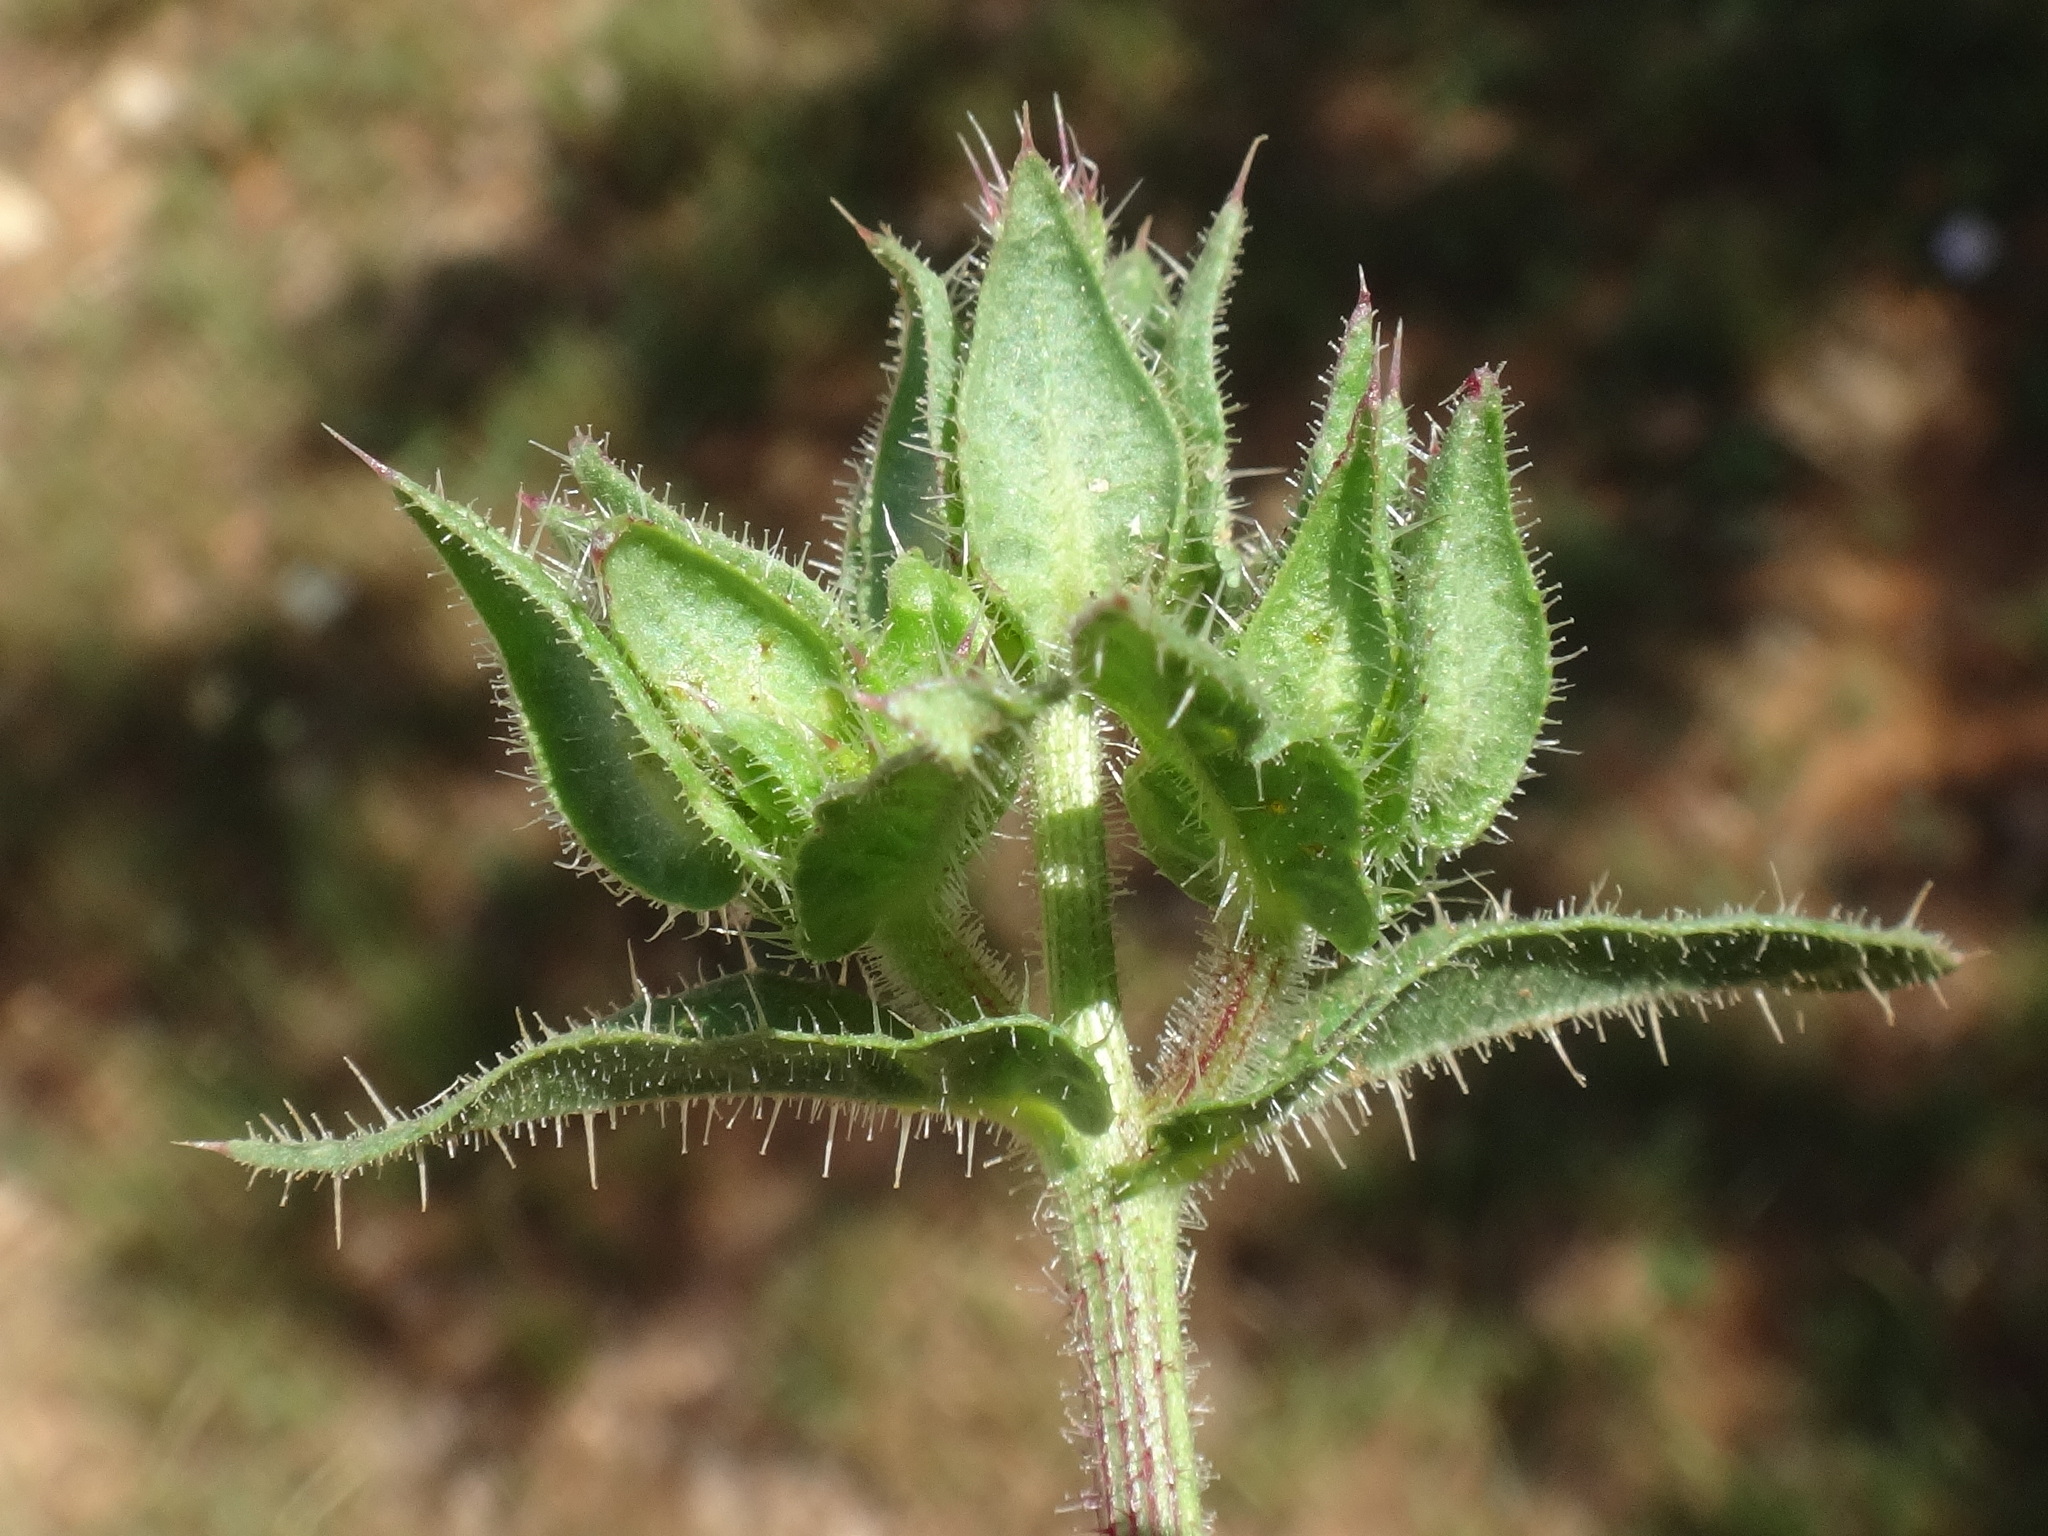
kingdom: Plantae
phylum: Tracheophyta
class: Magnoliopsida
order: Asterales
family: Asteraceae
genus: Helminthotheca
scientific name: Helminthotheca echioides
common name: Ox-tongue
